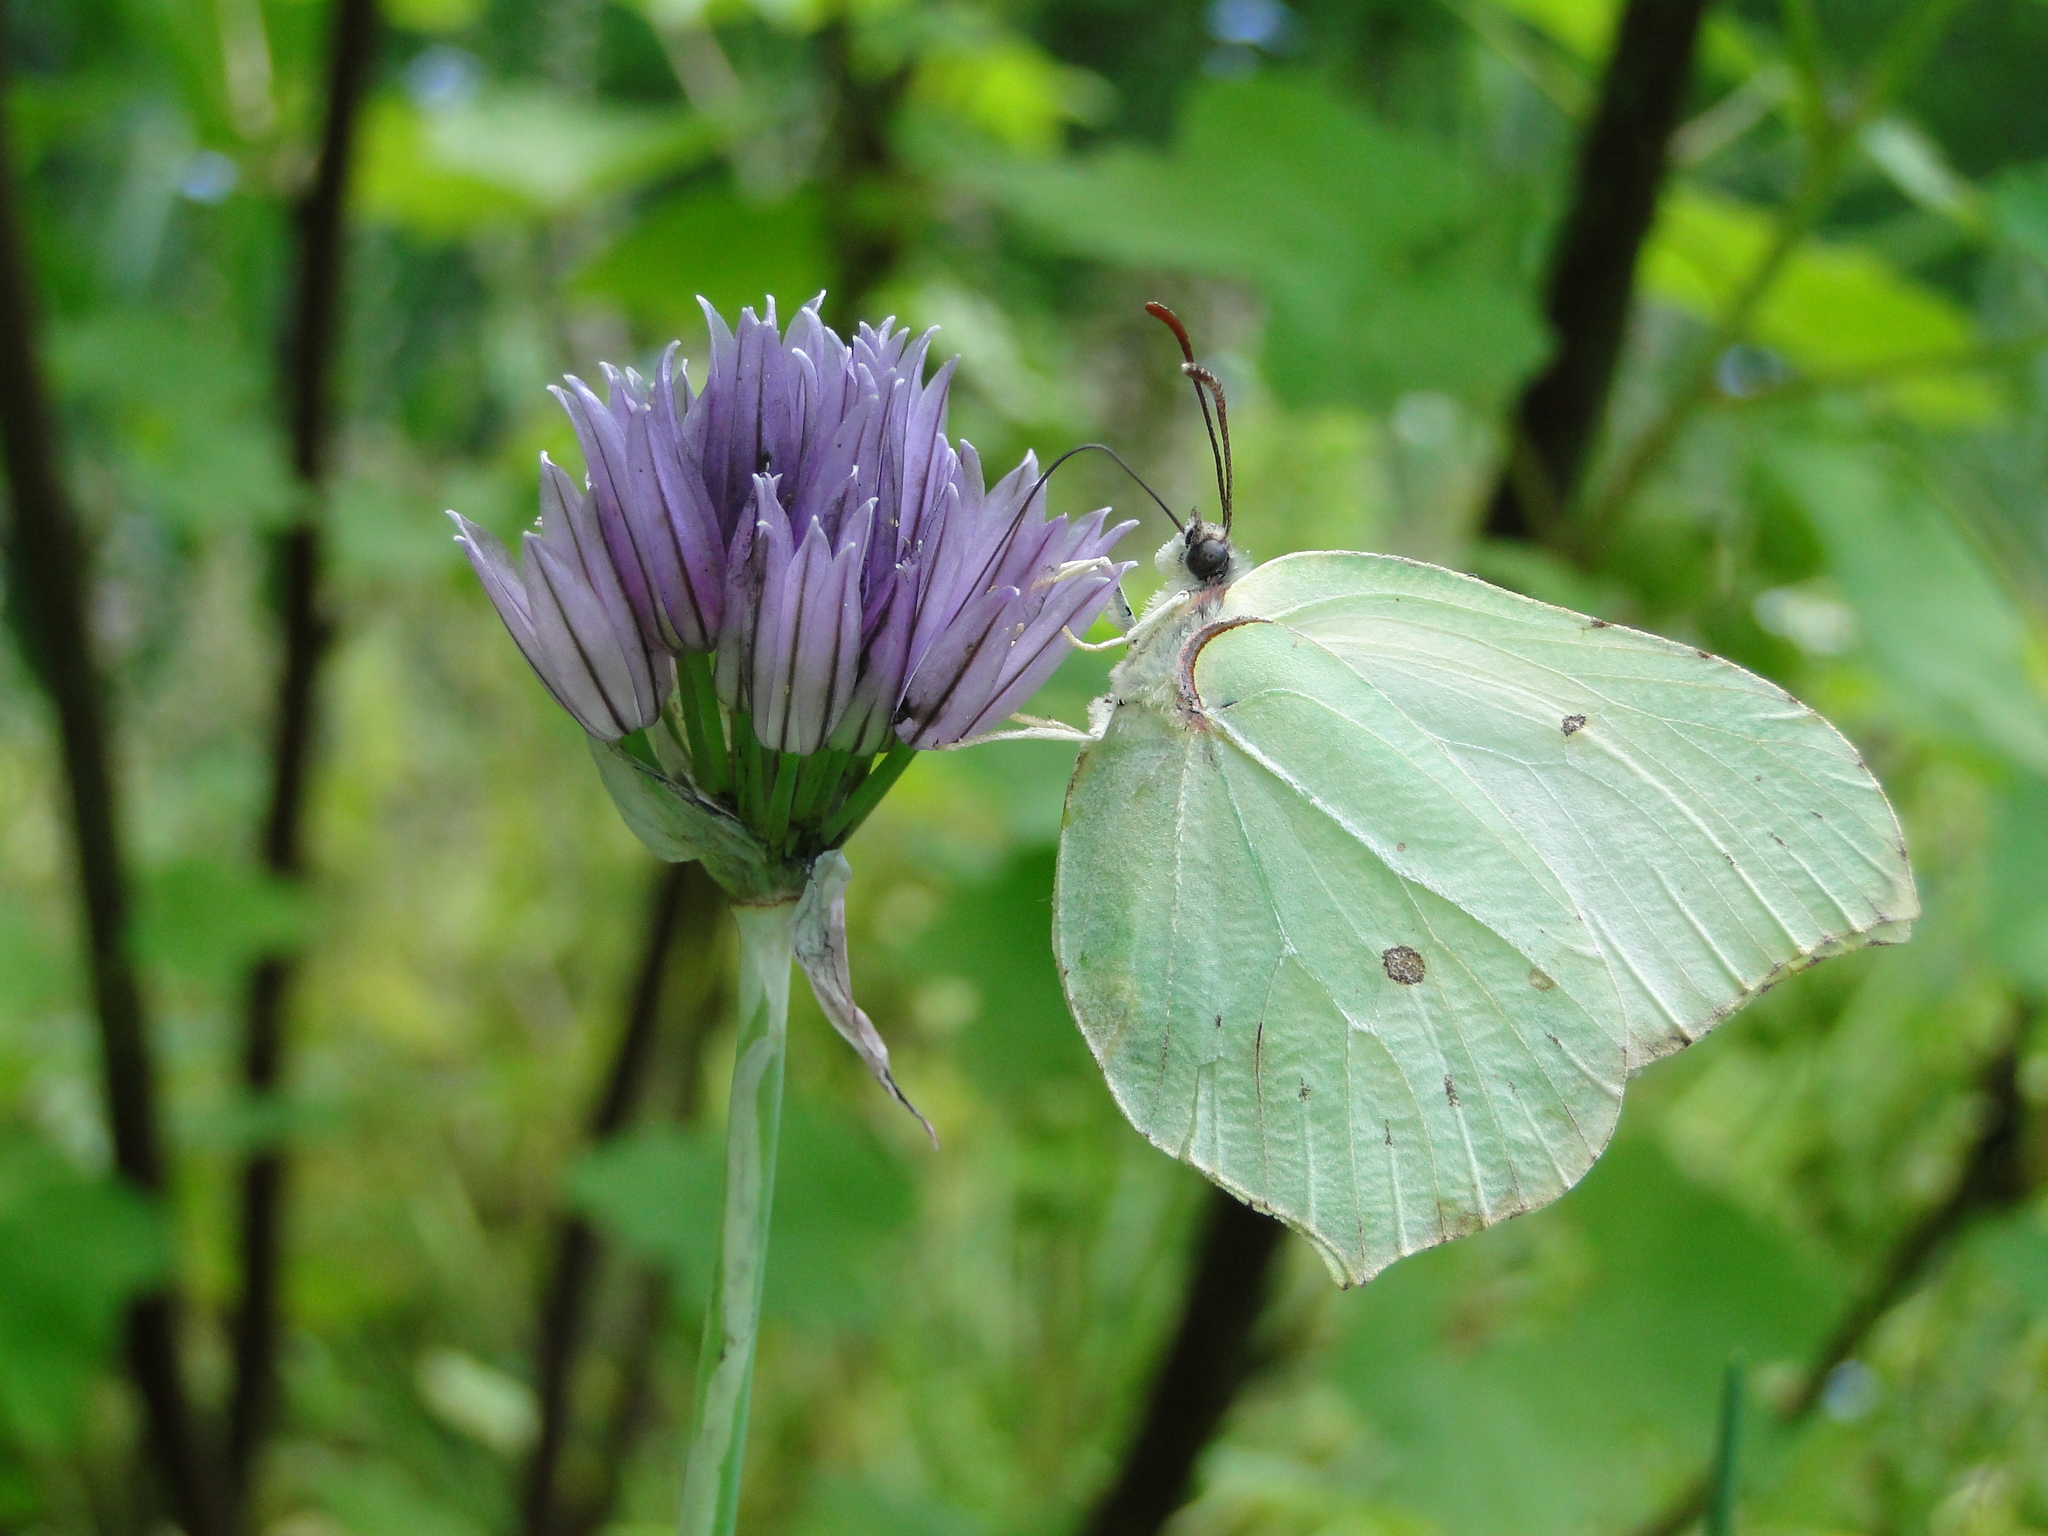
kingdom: Animalia
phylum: Arthropoda
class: Insecta
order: Lepidoptera
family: Pieridae
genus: Gonepteryx
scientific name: Gonepteryx rhamni
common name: Brimstone
